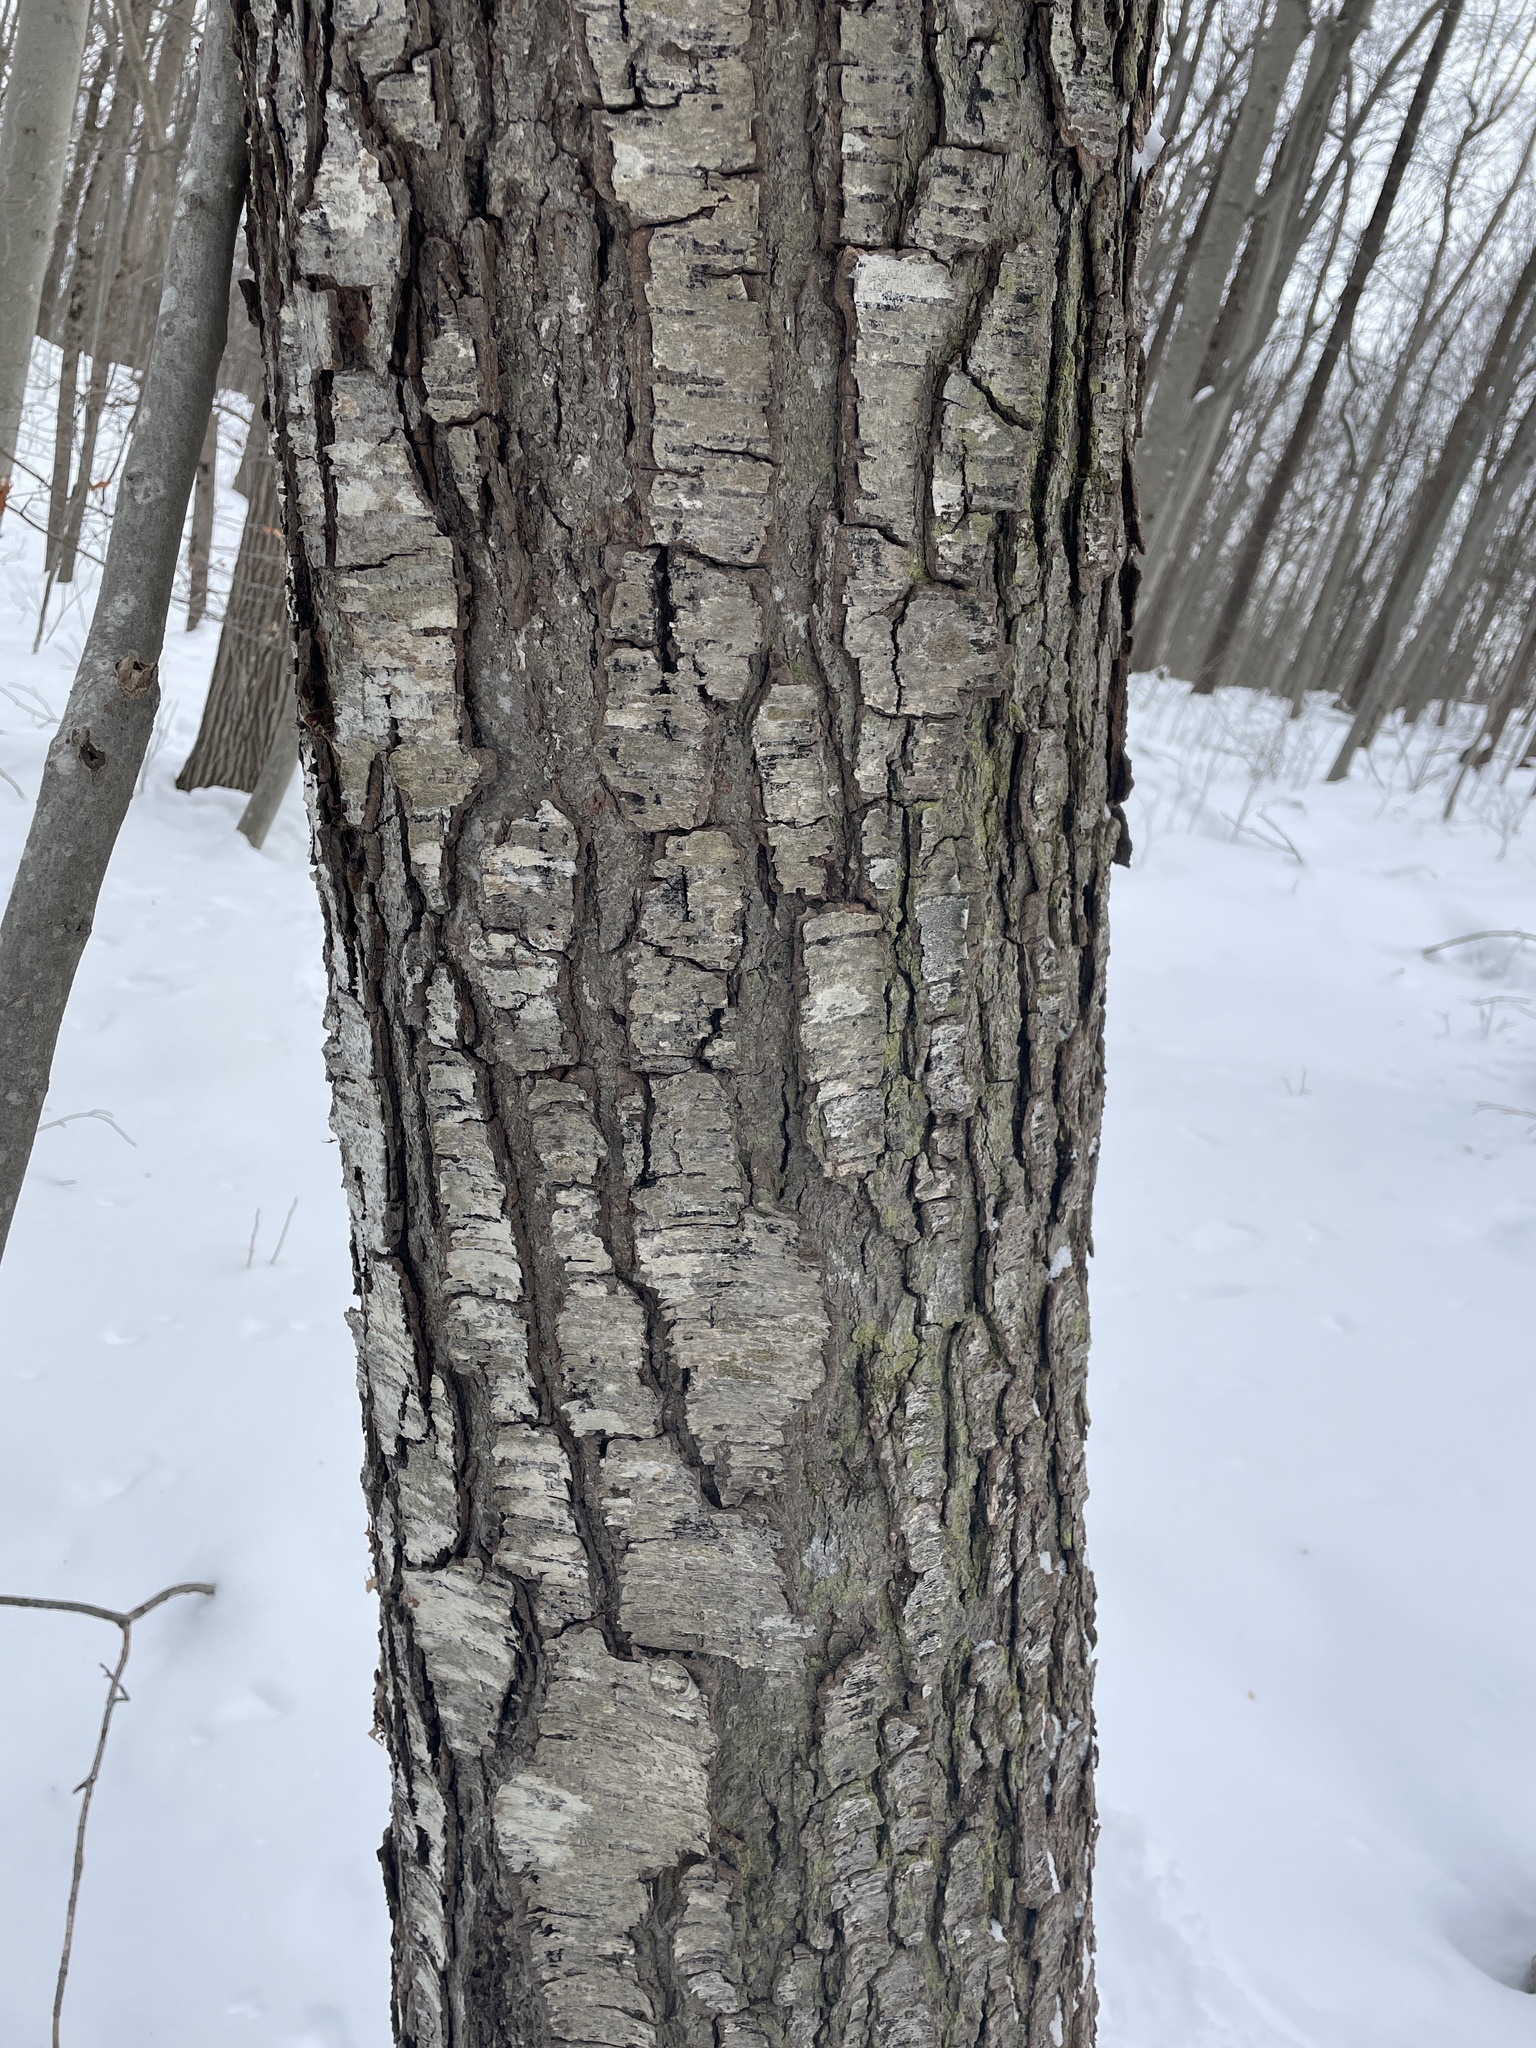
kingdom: Plantae
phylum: Tracheophyta
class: Magnoliopsida
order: Fagales
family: Betulaceae
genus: Betula
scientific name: Betula lenta
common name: Black birch
